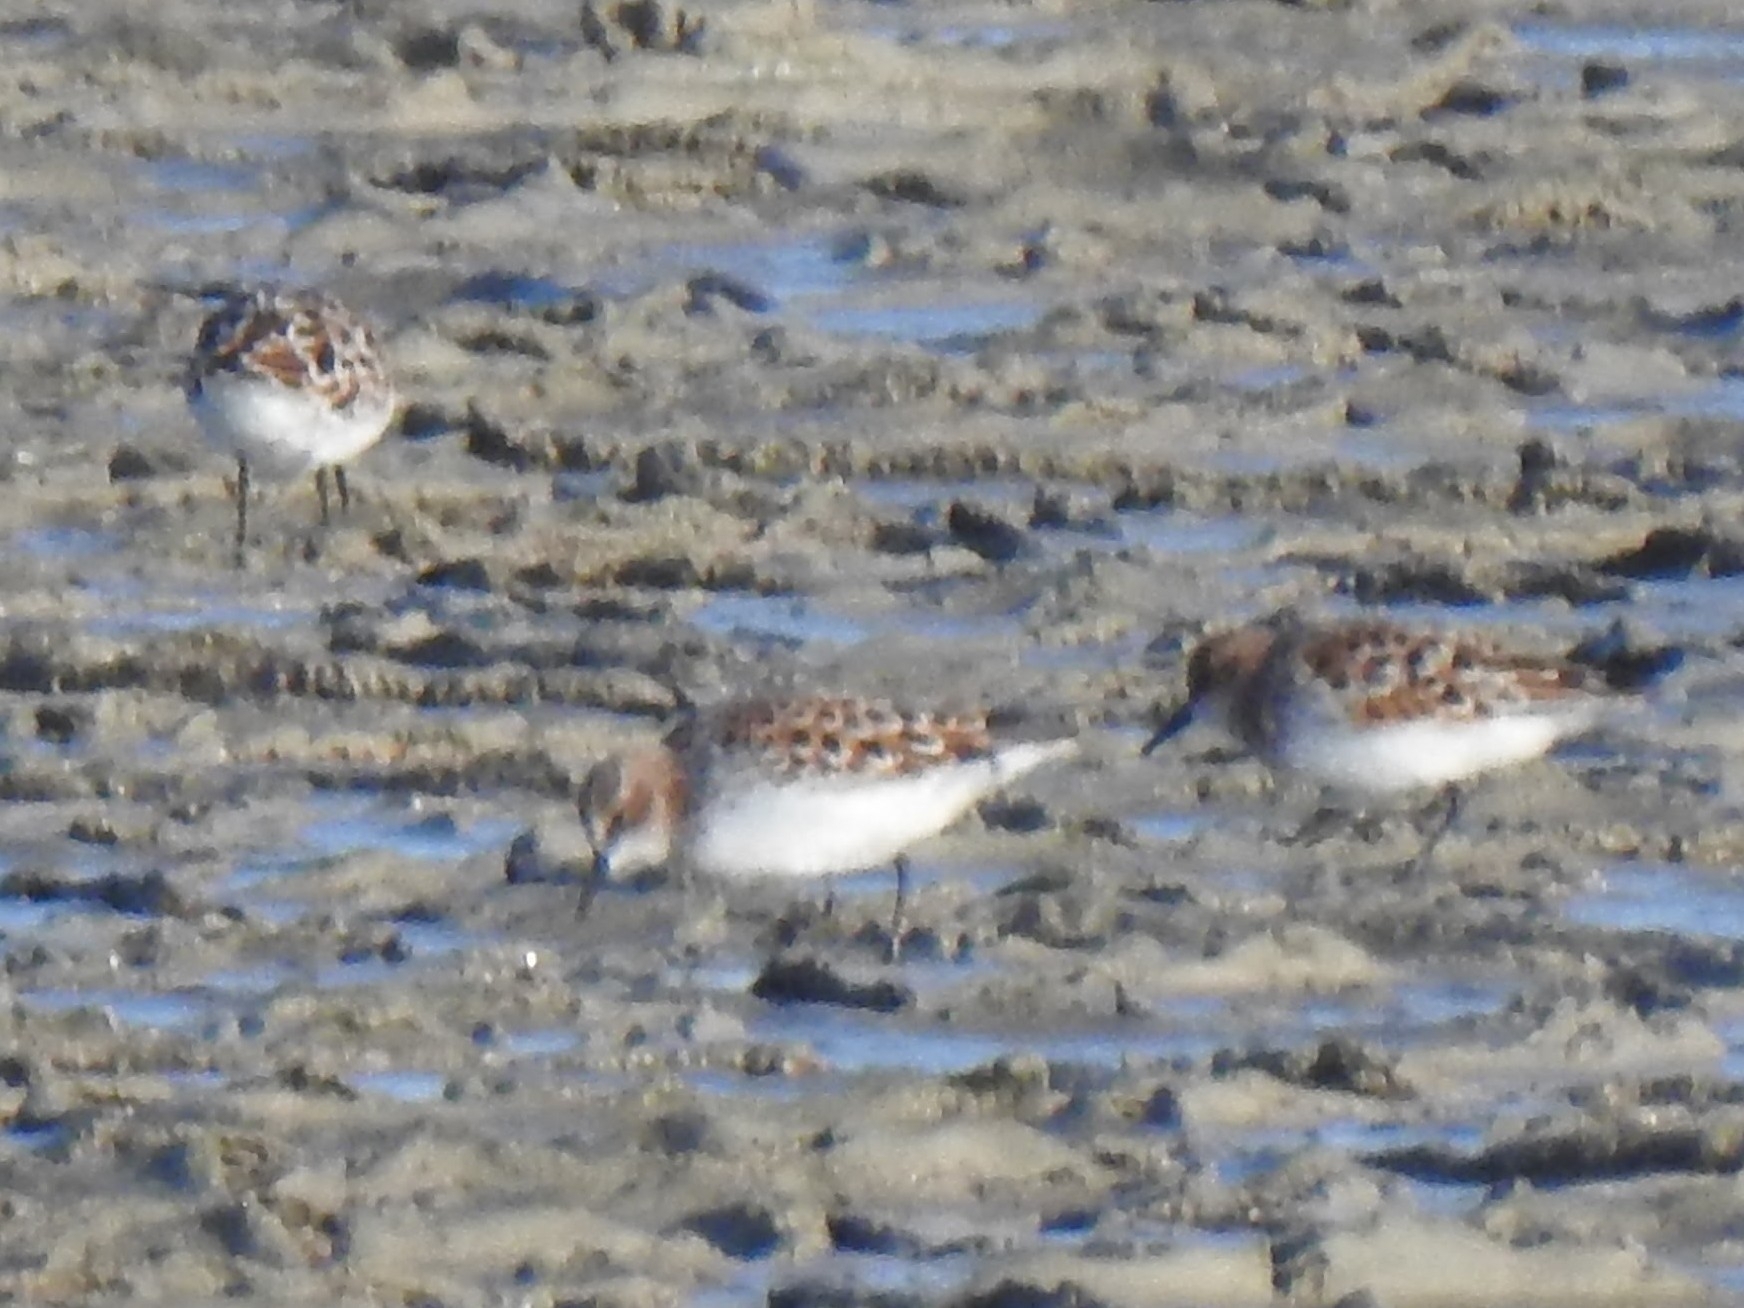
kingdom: Animalia
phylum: Chordata
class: Aves
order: Charadriiformes
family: Scolopacidae
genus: Calidris
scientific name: Calidris minuta
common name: Little stint
